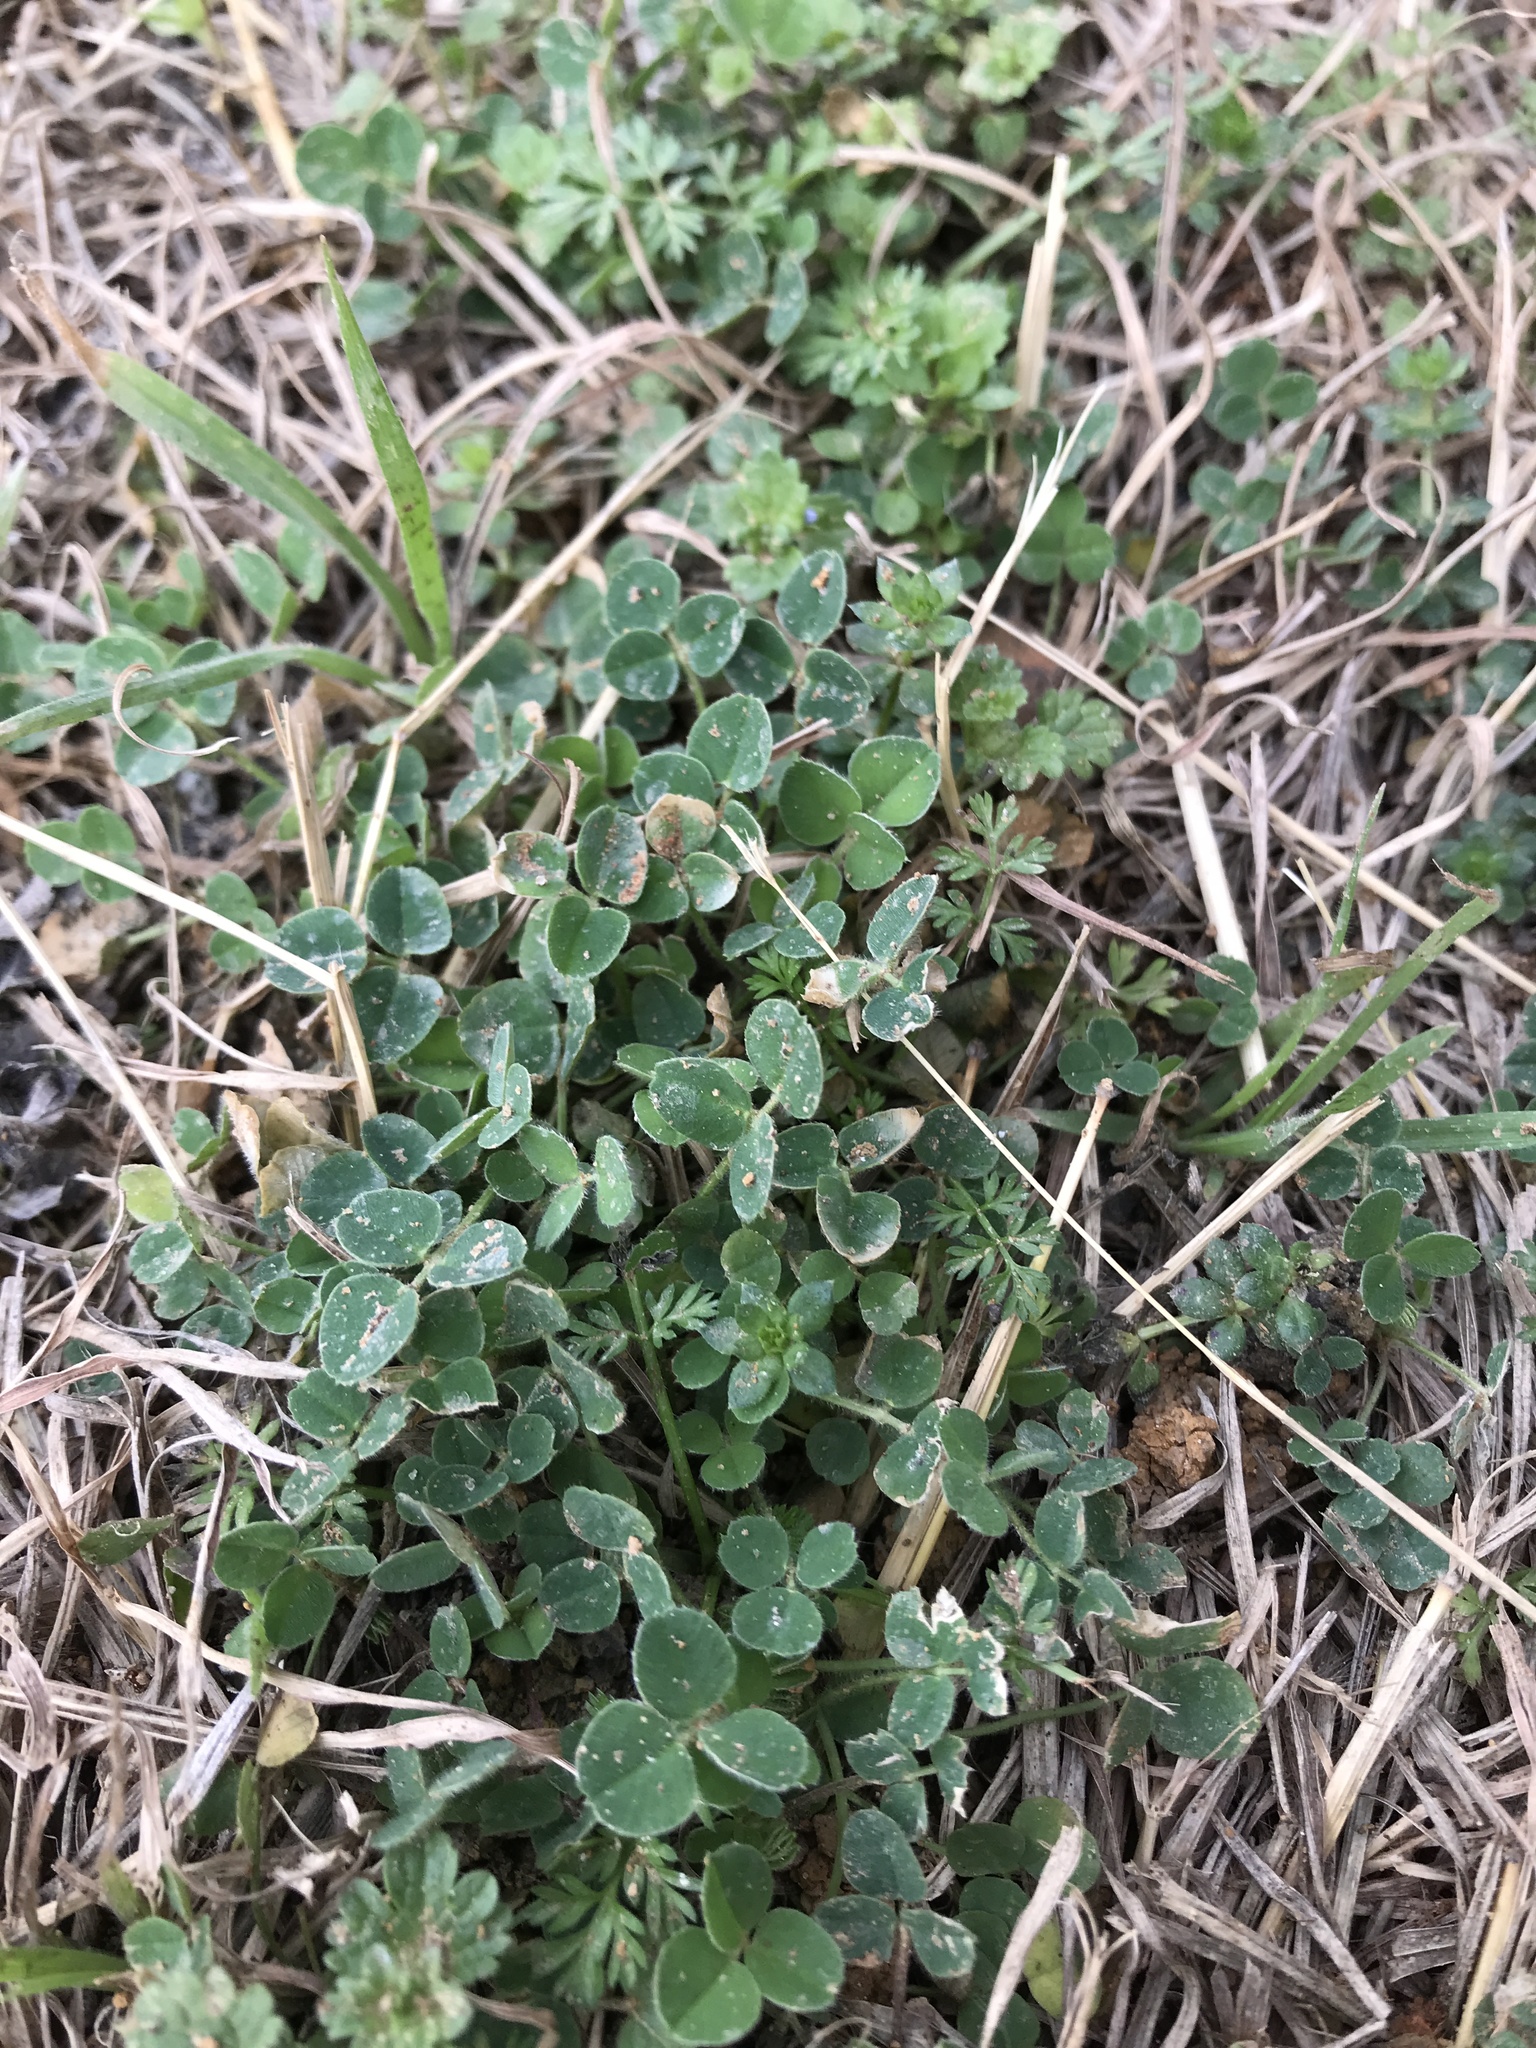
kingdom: Plantae
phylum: Tracheophyta
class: Magnoliopsida
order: Fabales
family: Fabaceae
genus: Medicago
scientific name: Medicago lupulina
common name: Black medick
